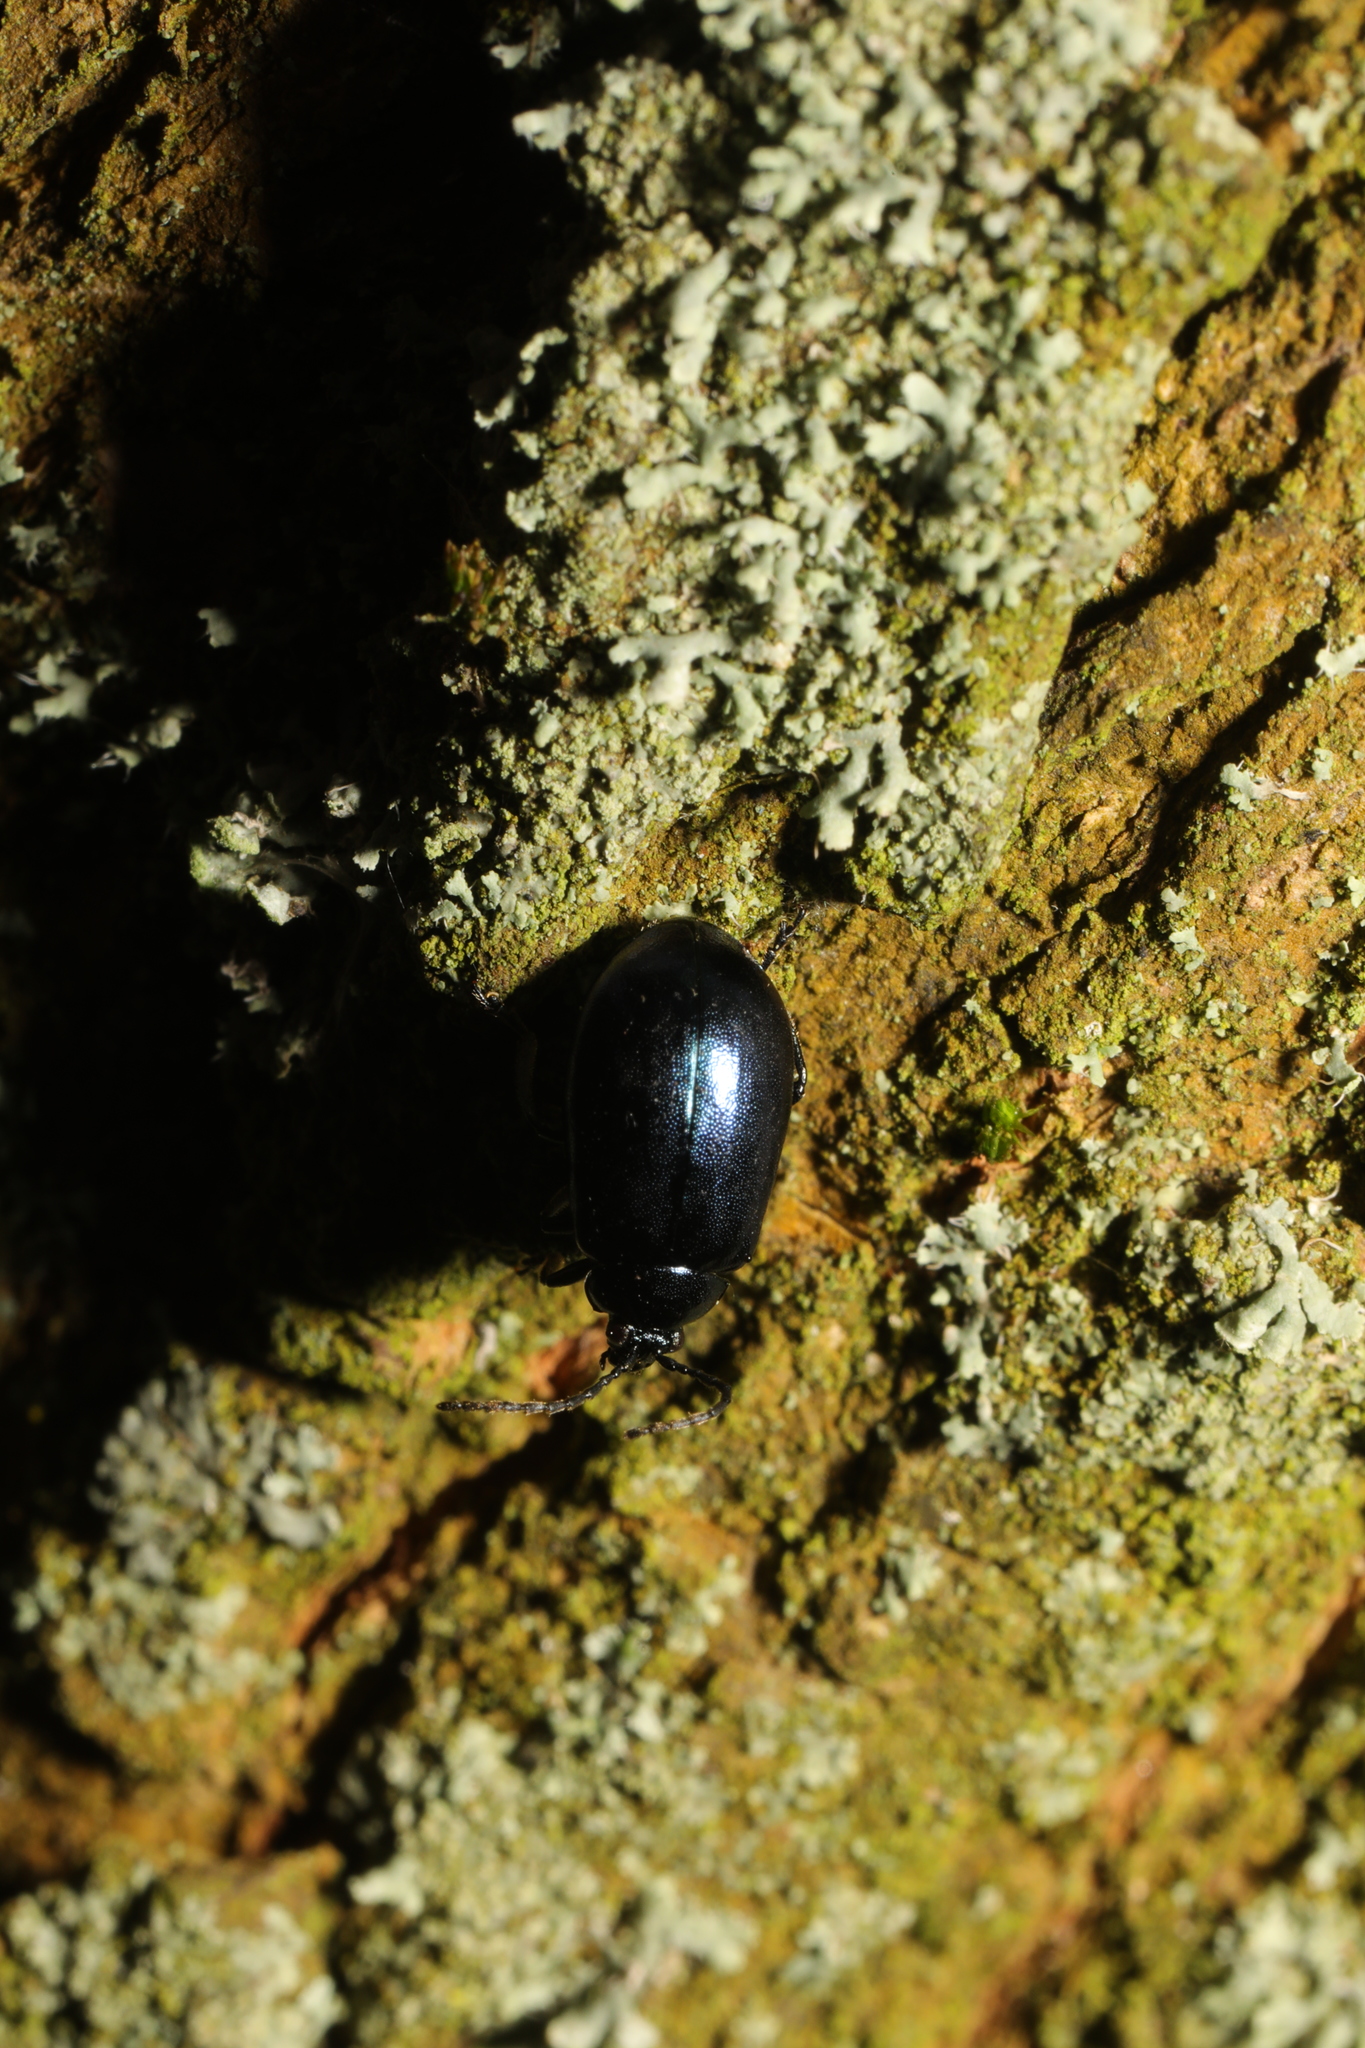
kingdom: Animalia
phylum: Arthropoda
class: Insecta
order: Coleoptera
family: Chrysomelidae
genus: Agelastica
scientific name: Agelastica alni
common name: Alder leaf beetle
